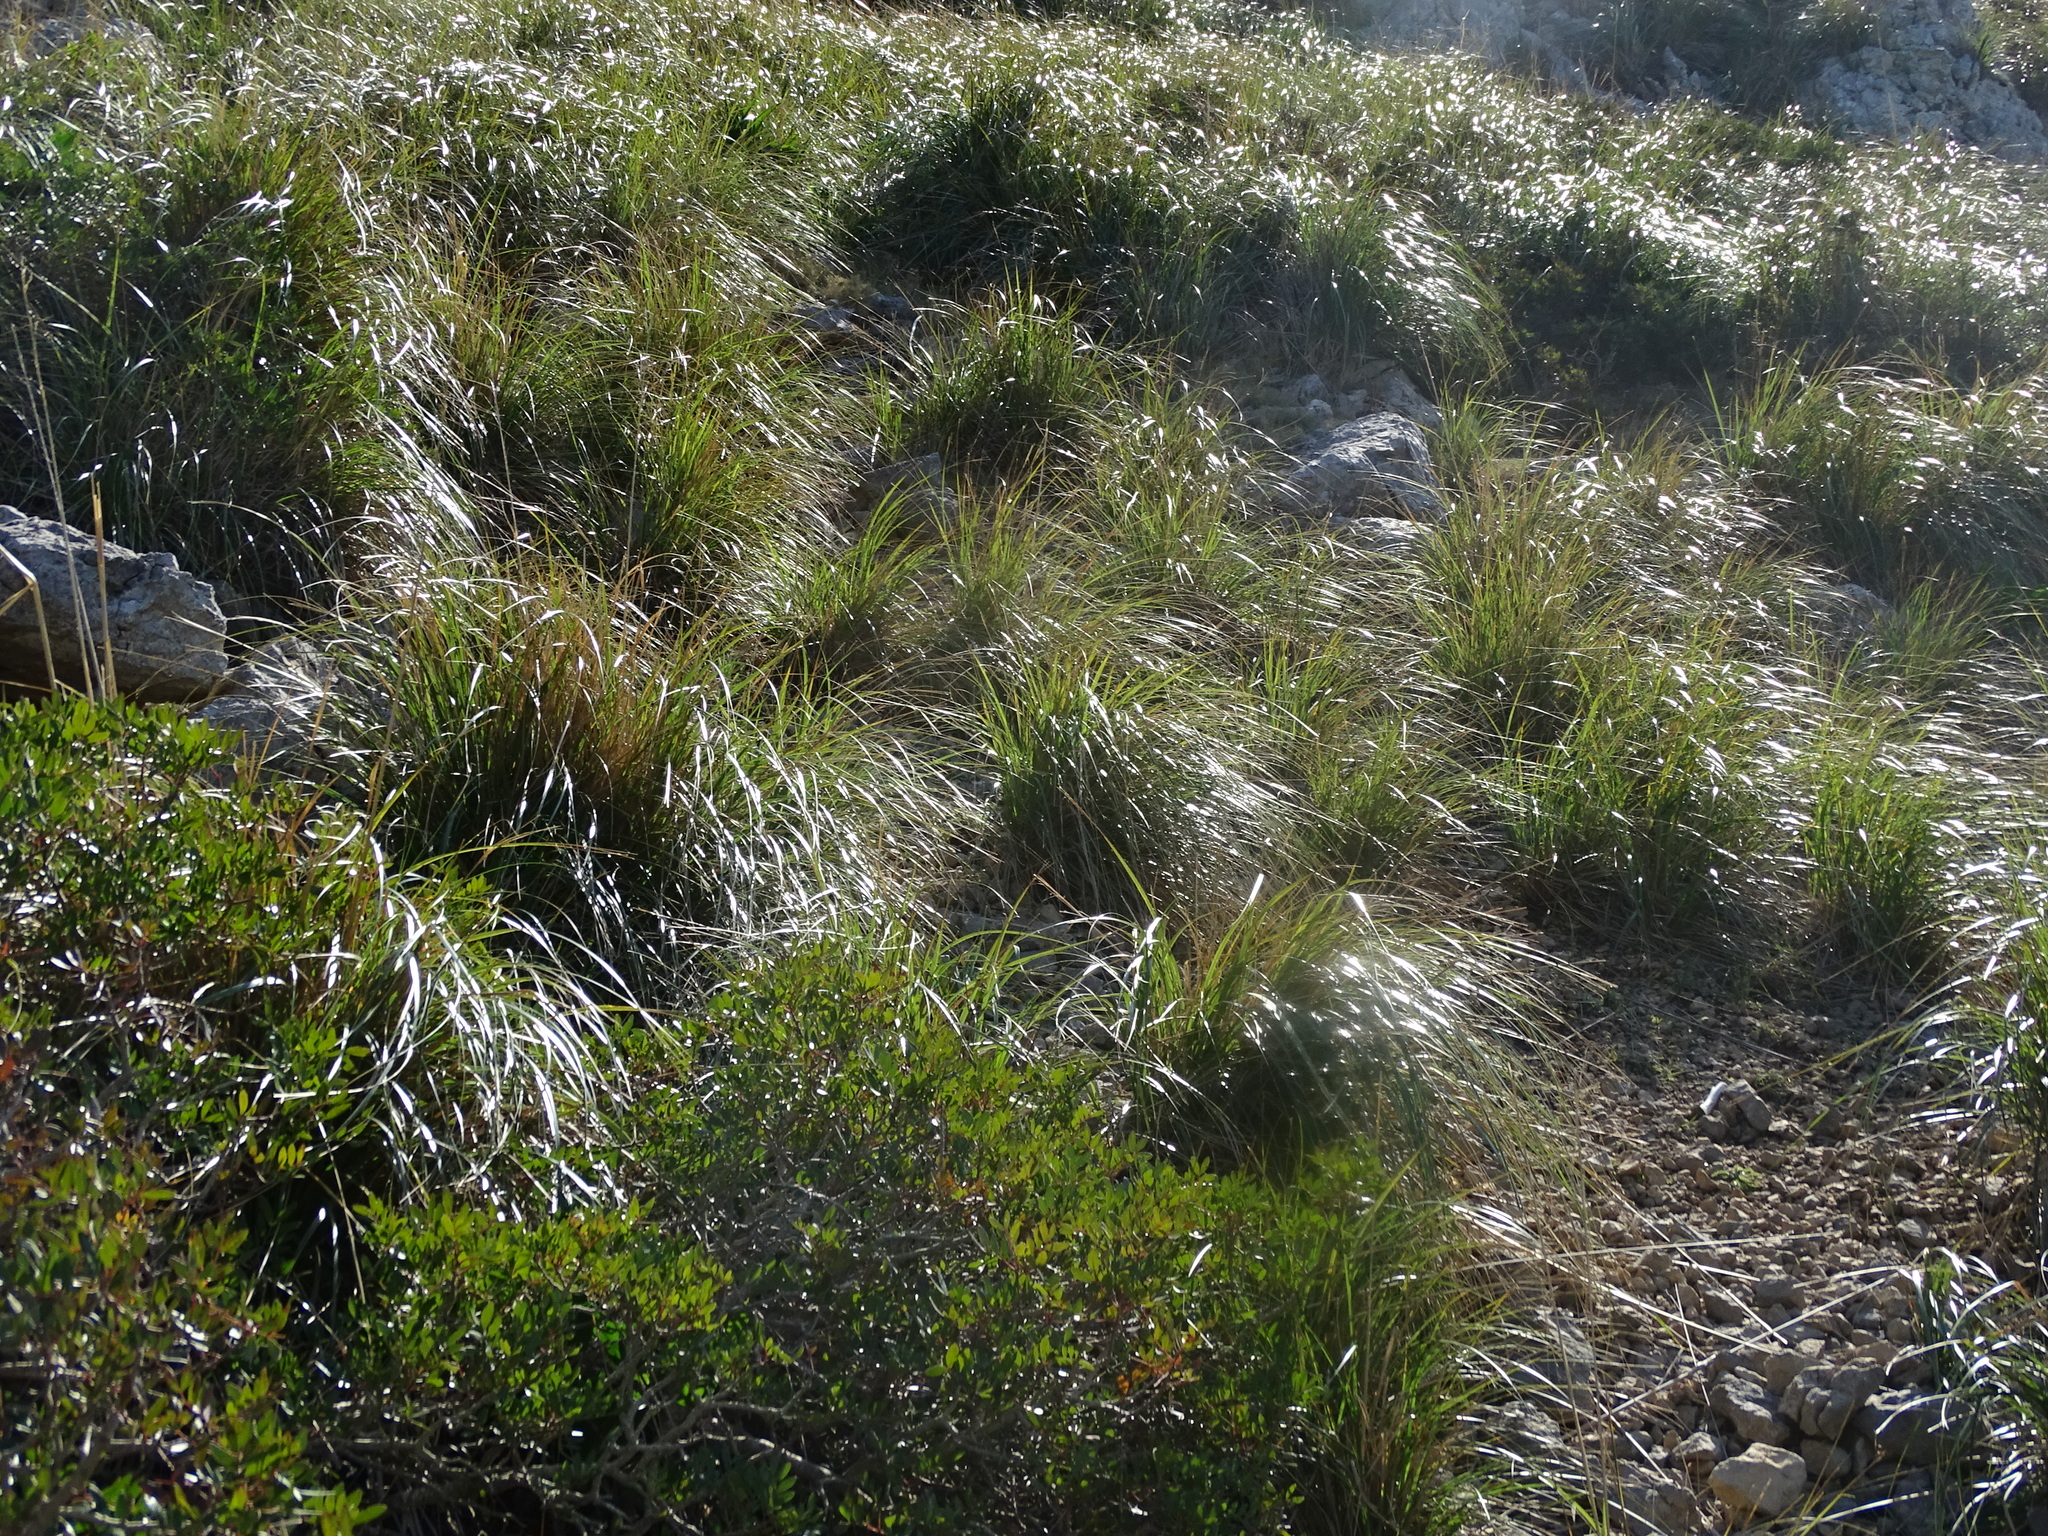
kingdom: Plantae
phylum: Tracheophyta
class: Liliopsida
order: Poales
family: Poaceae
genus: Ampelodesmos
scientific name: Ampelodesmos mauritanicus
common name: Mauritanian grass
